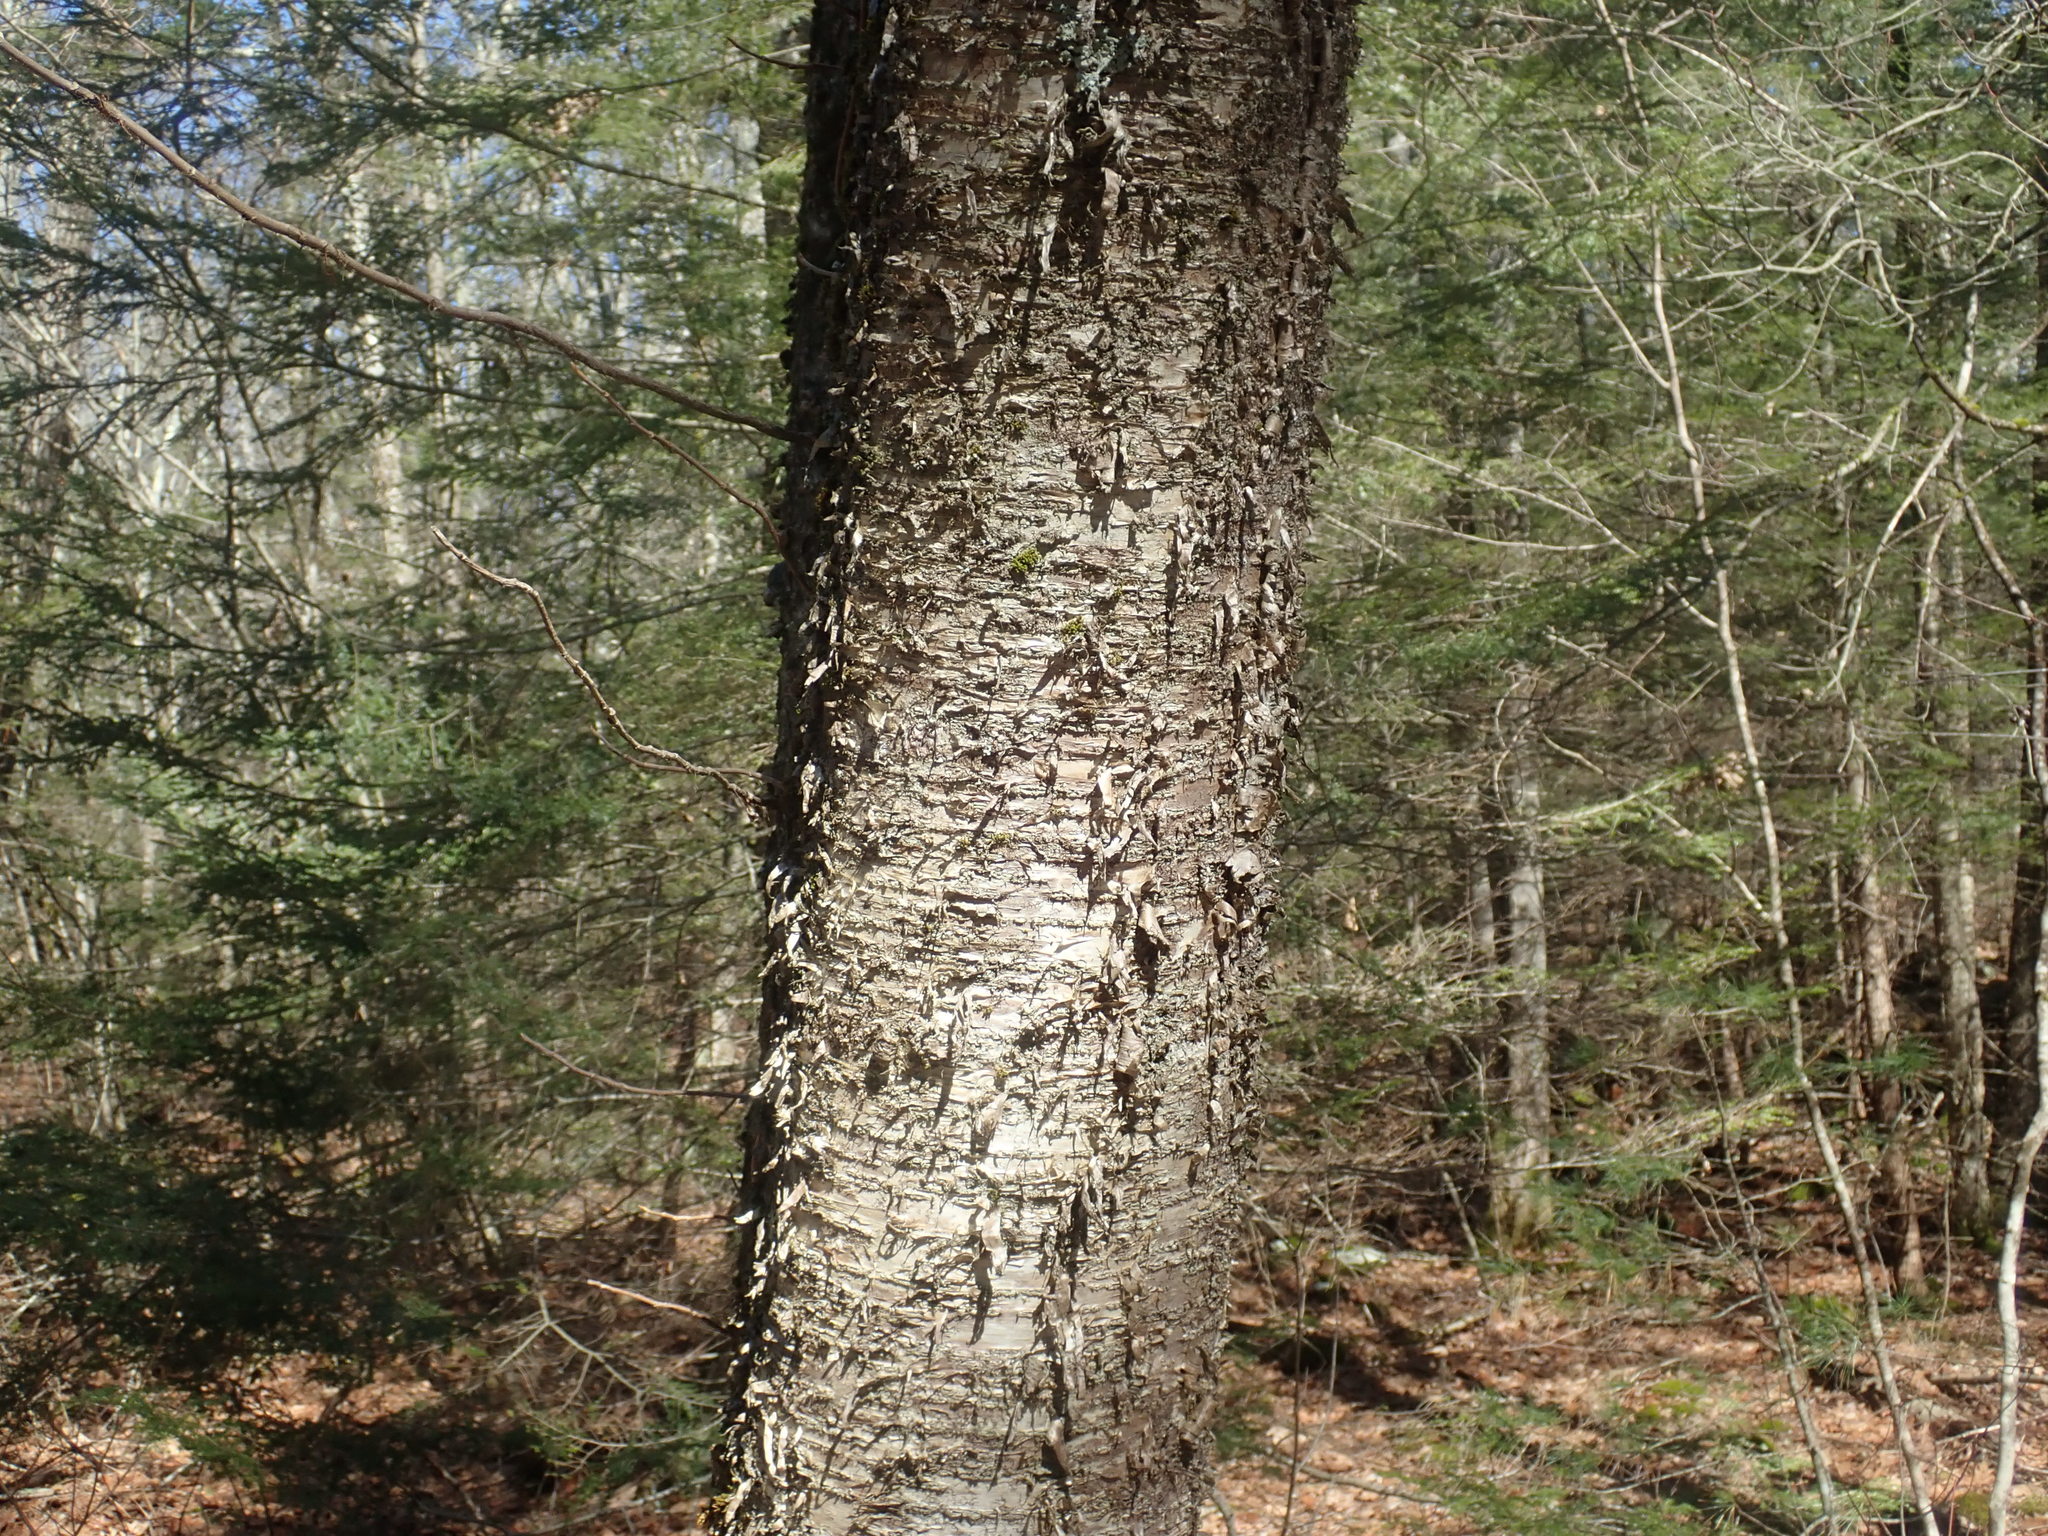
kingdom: Plantae
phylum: Tracheophyta
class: Magnoliopsida
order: Fagales
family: Betulaceae
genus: Betula
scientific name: Betula alleghaniensis
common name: Yellow birch
